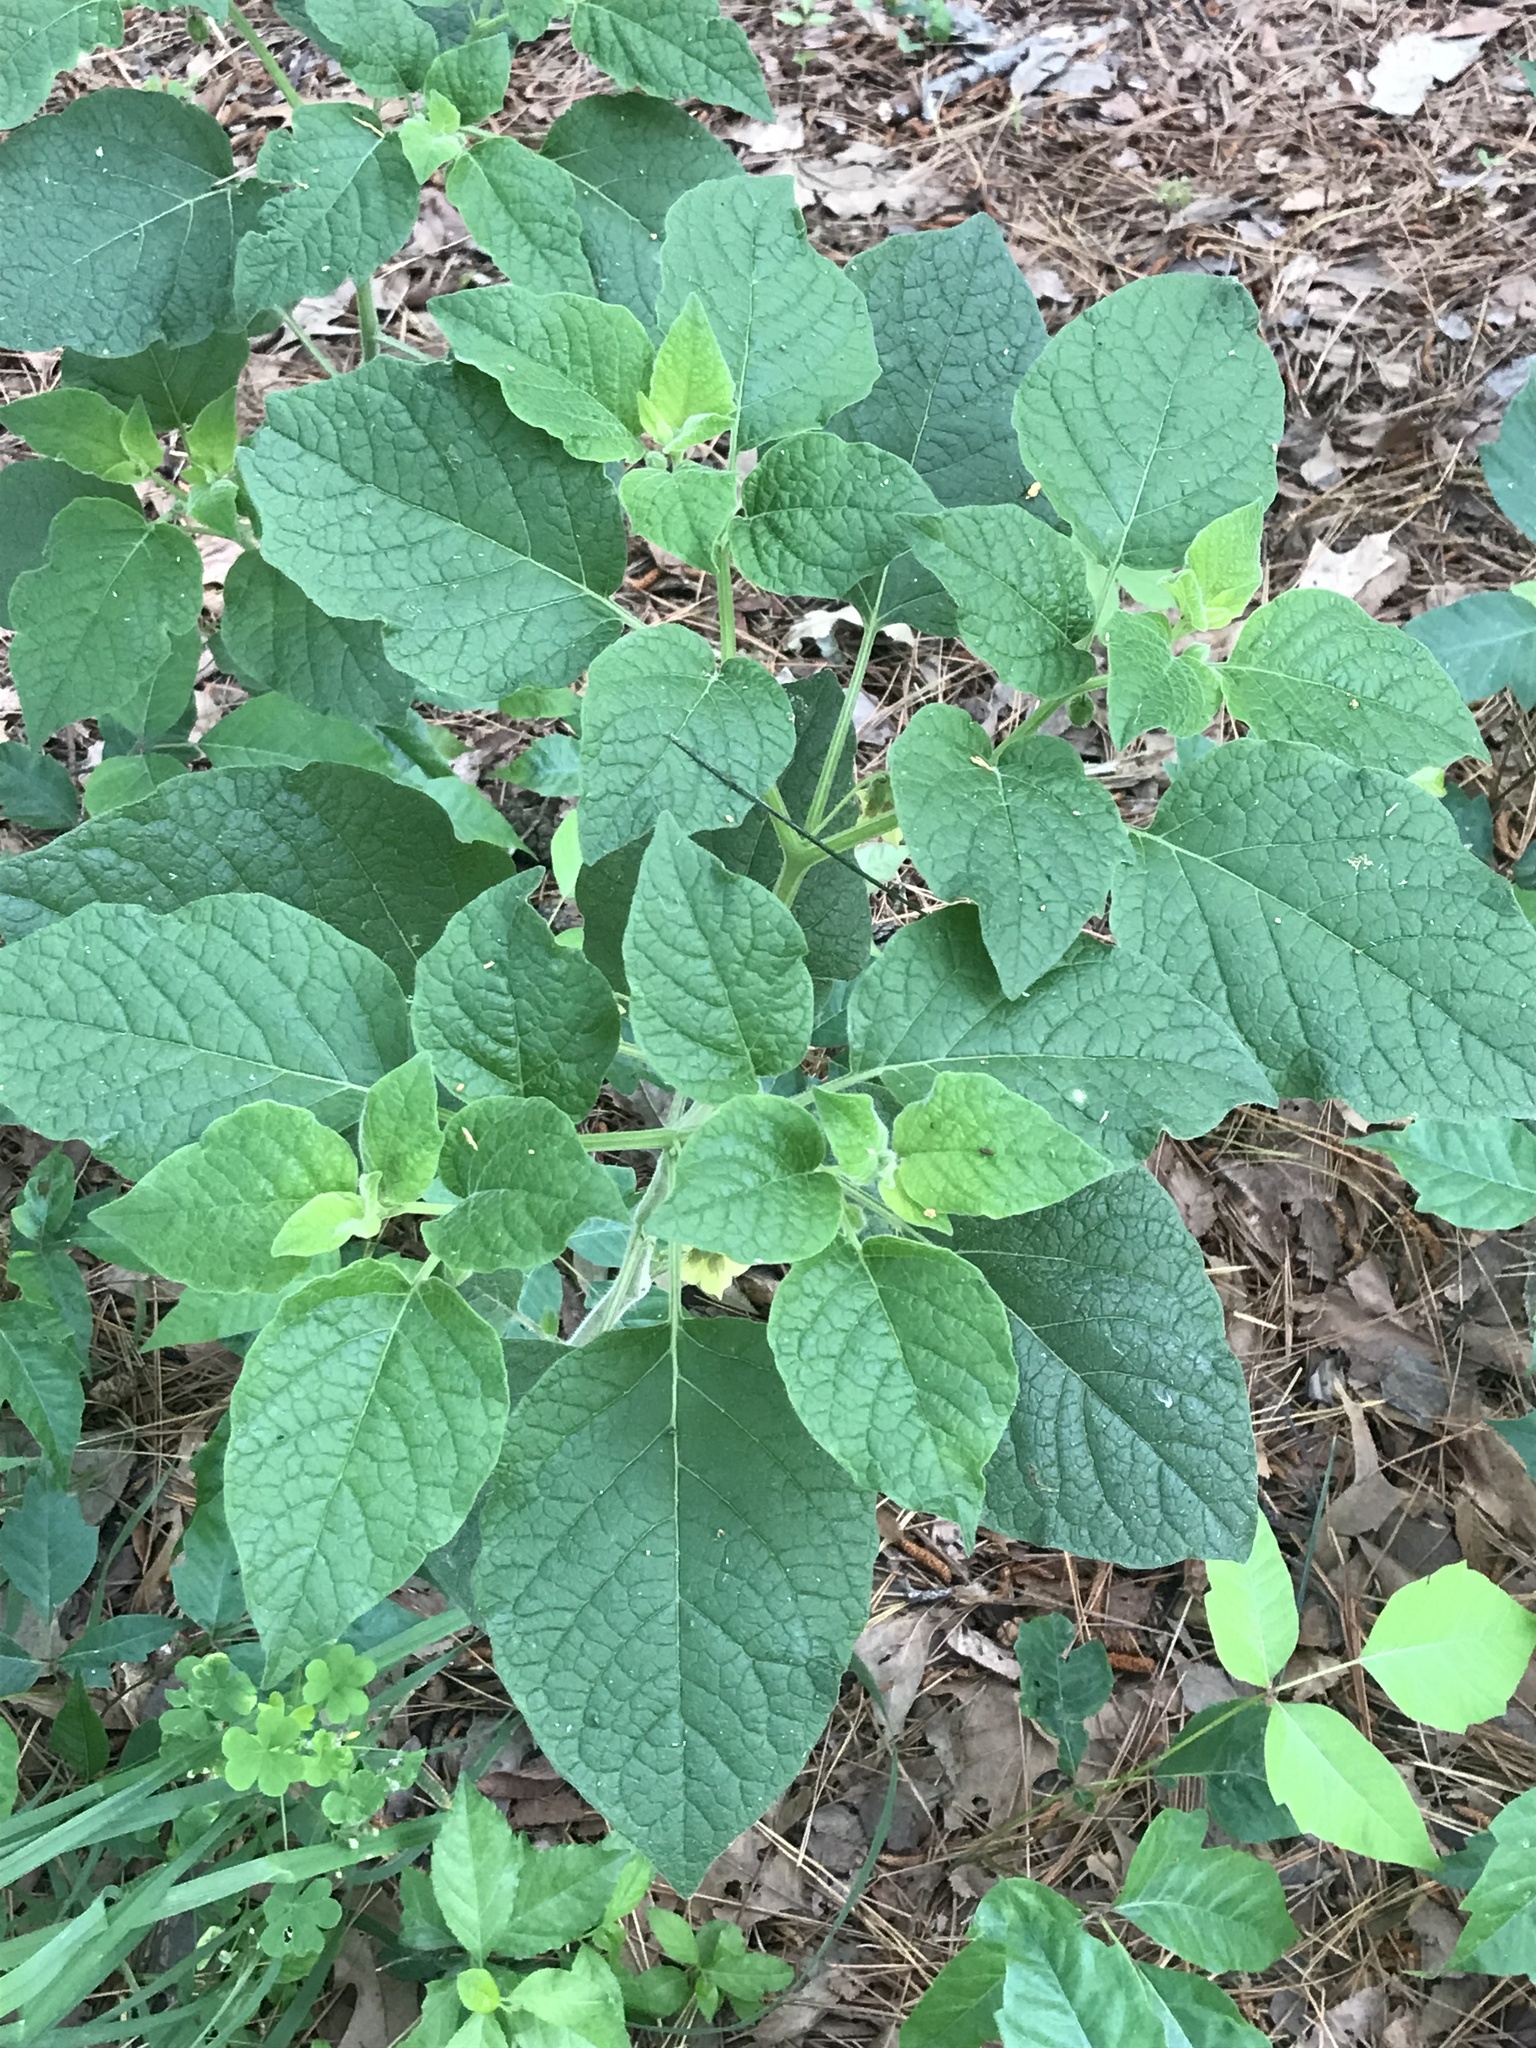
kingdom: Plantae
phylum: Tracheophyta
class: Magnoliopsida
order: Solanales
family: Solanaceae
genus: Physalis
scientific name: Physalis heterophylla
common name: Clammy ground-cherry
